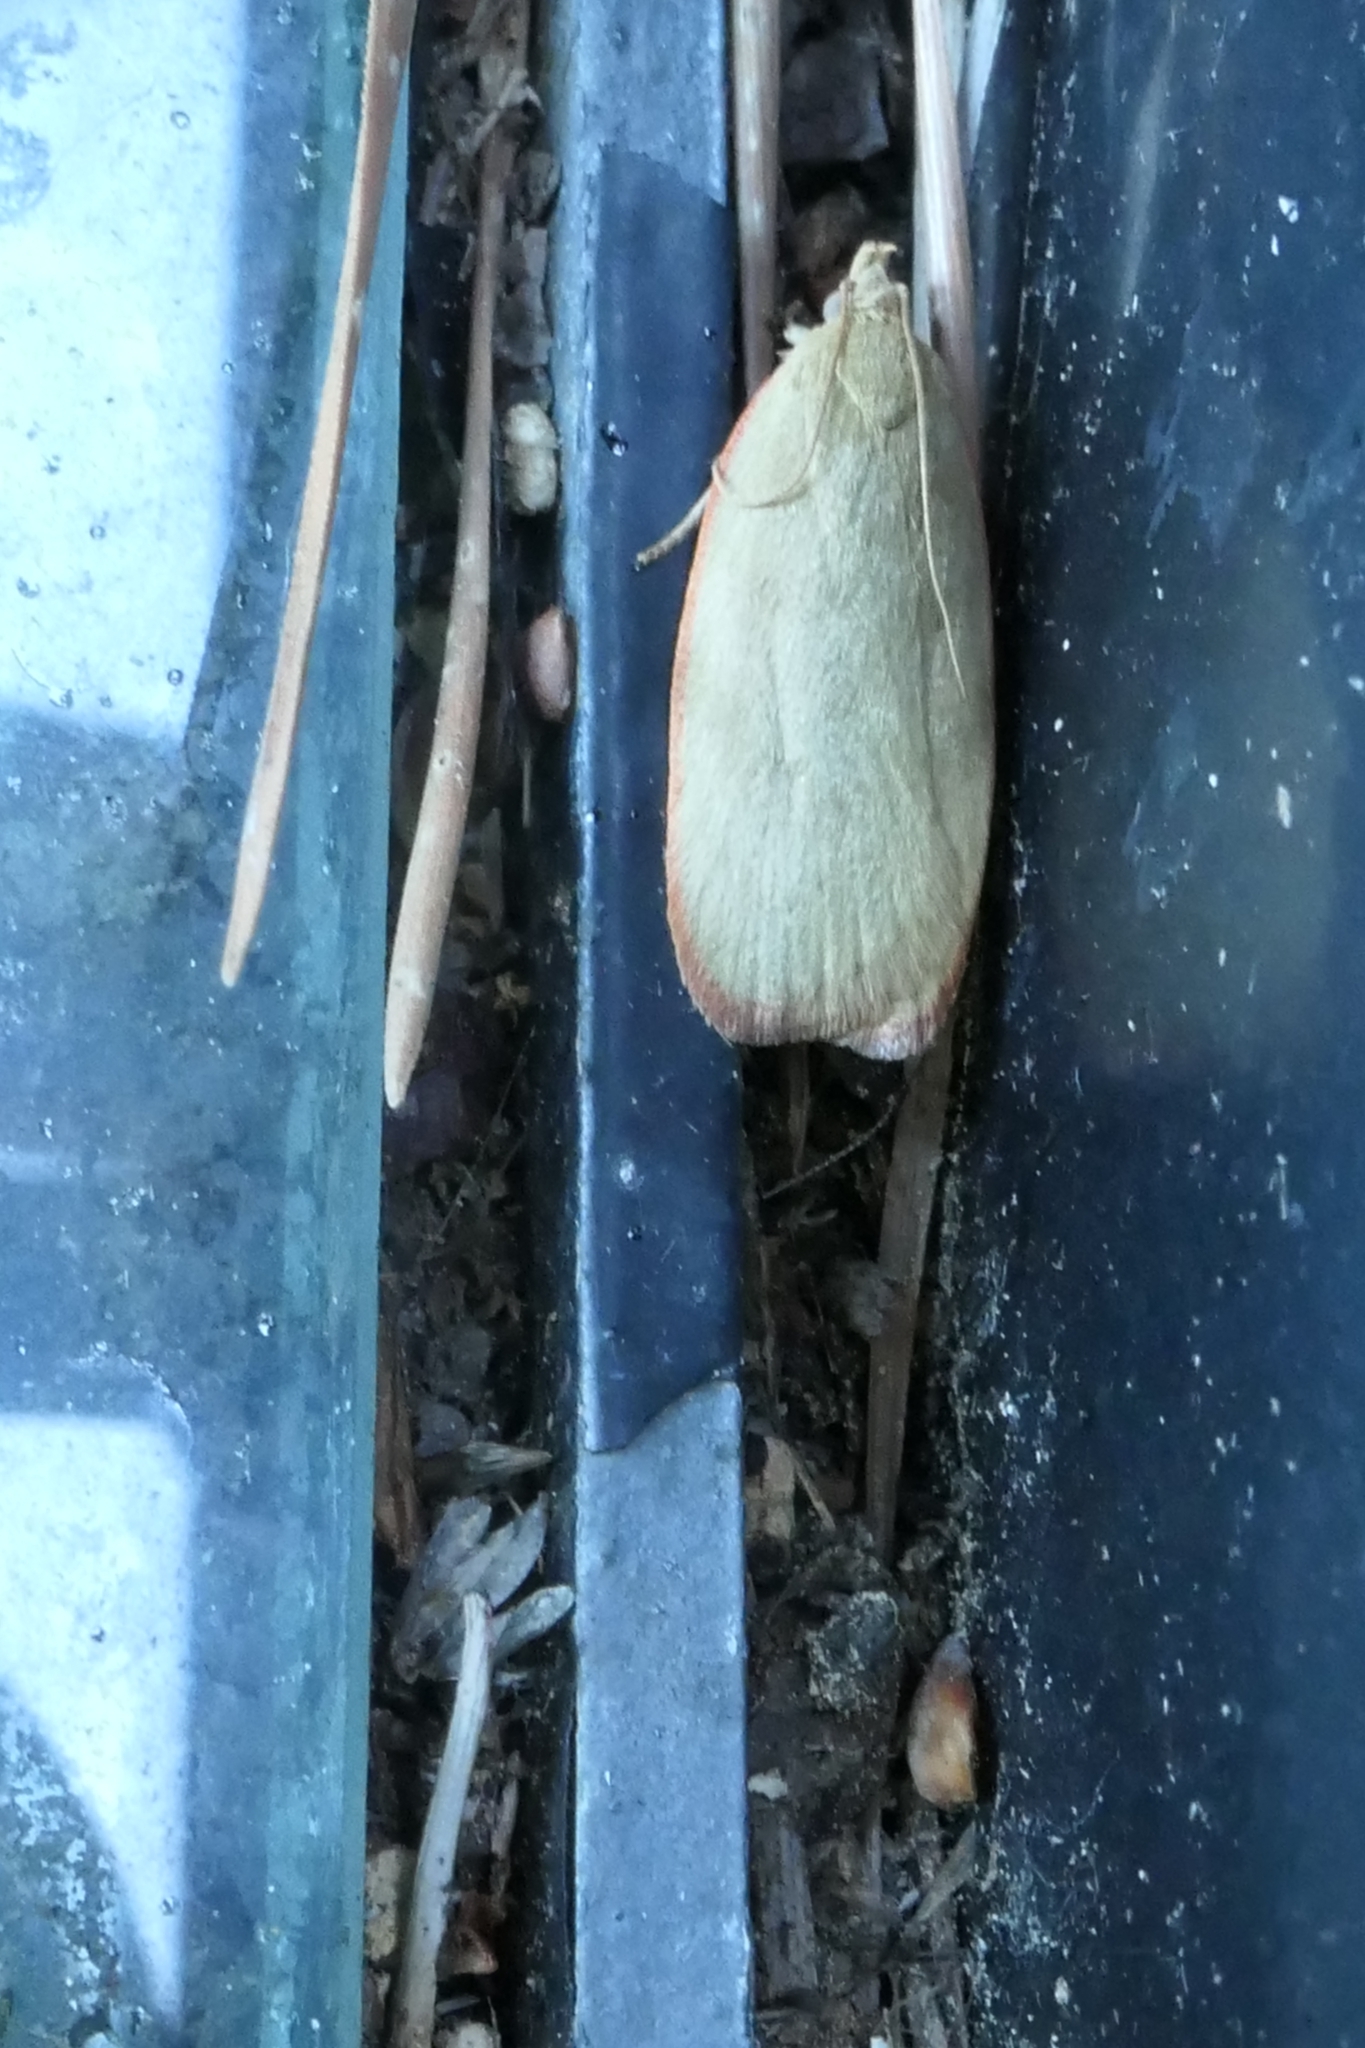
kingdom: Animalia
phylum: Arthropoda
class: Insecta
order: Lepidoptera
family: Depressariidae
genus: Phaeosaces
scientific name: Phaeosaces coarctatella
